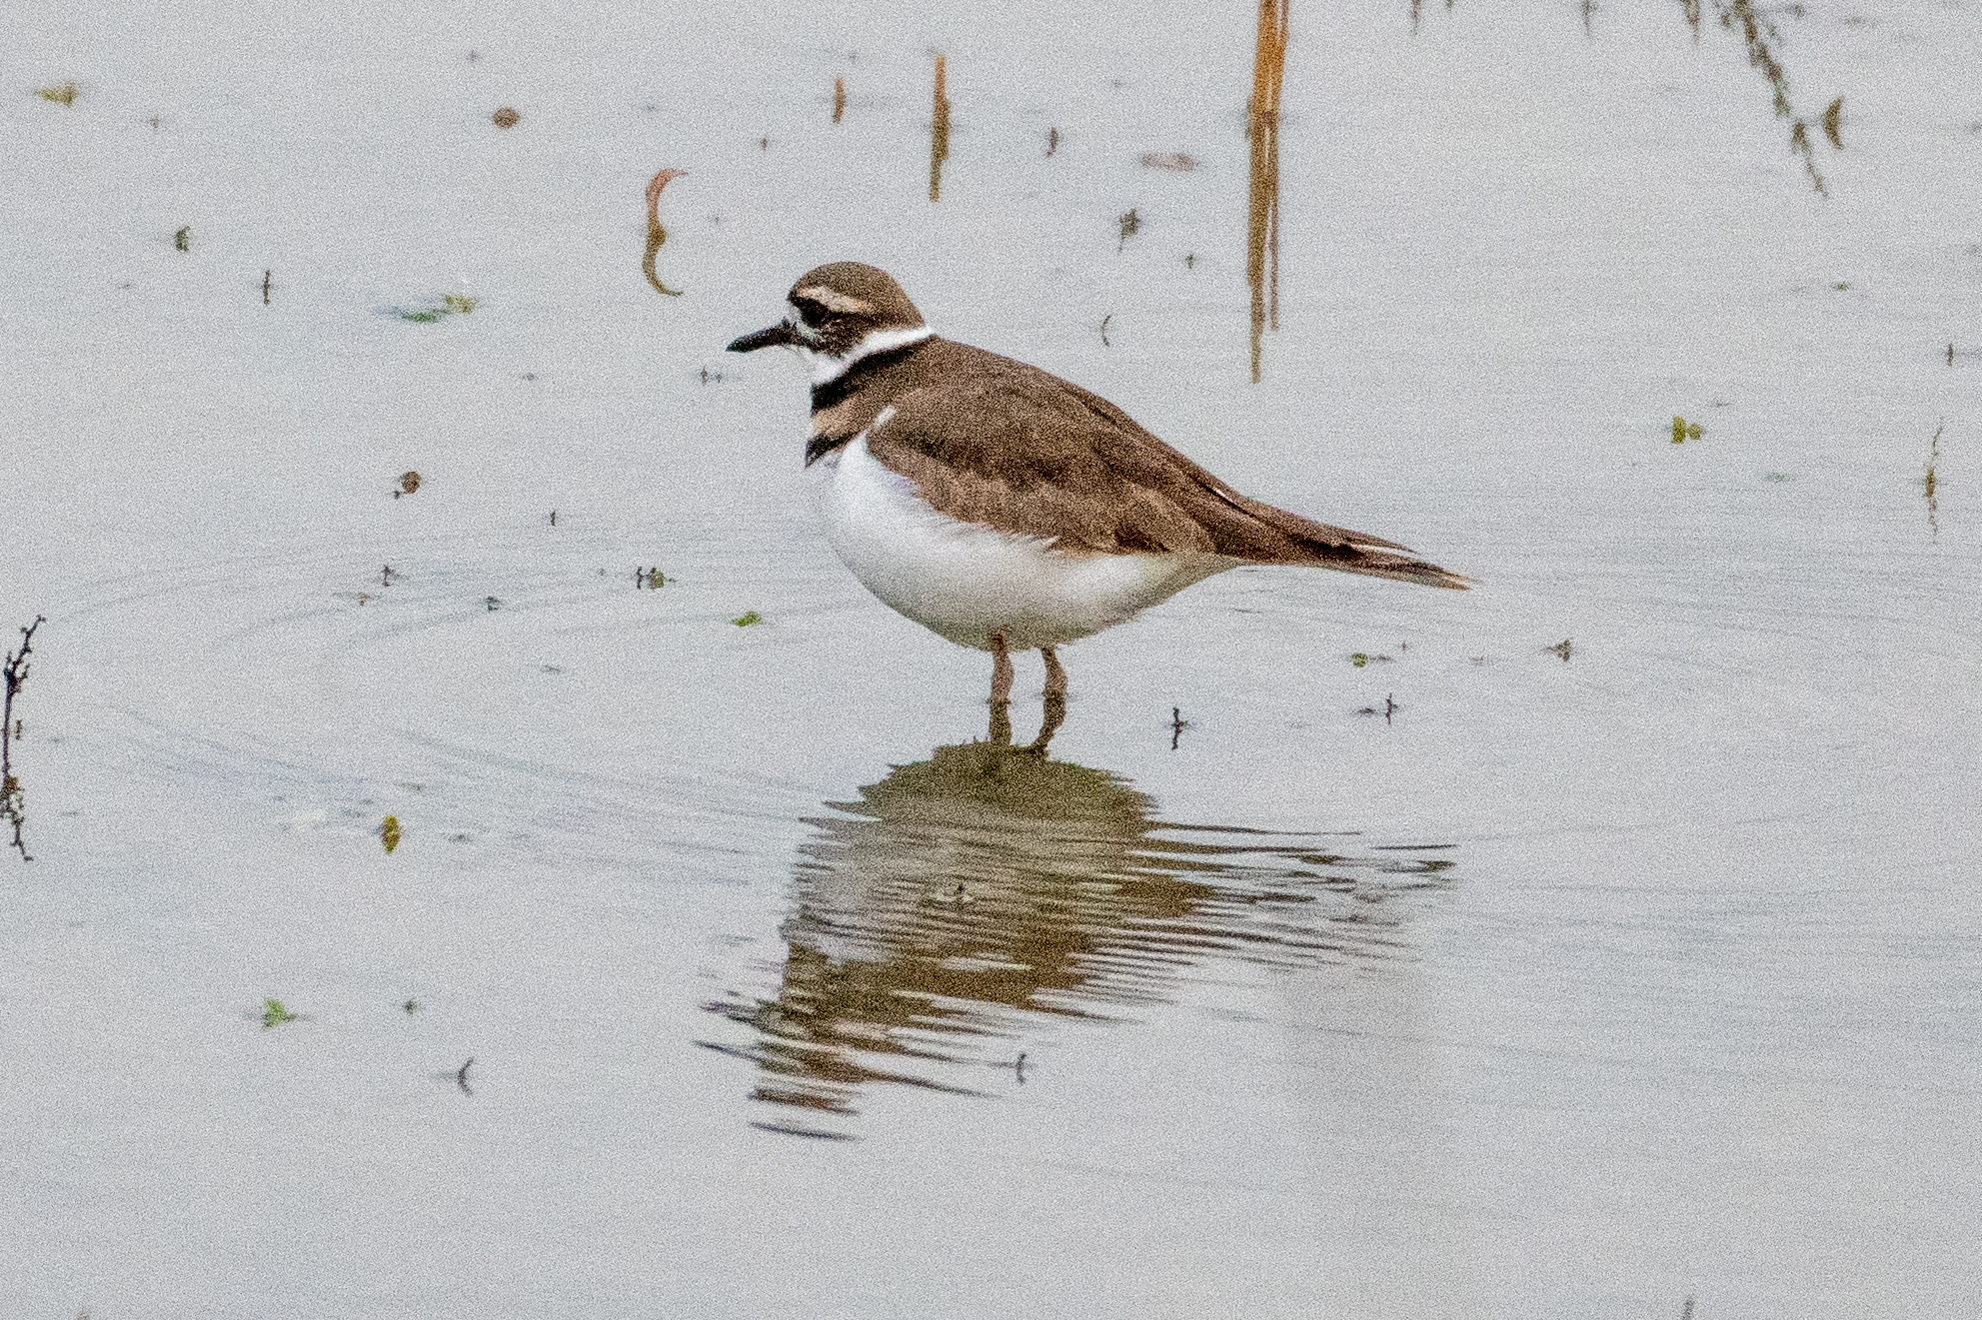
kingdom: Animalia
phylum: Chordata
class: Aves
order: Charadriiformes
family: Charadriidae
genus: Charadrius
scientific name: Charadrius vociferus
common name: Killdeer
